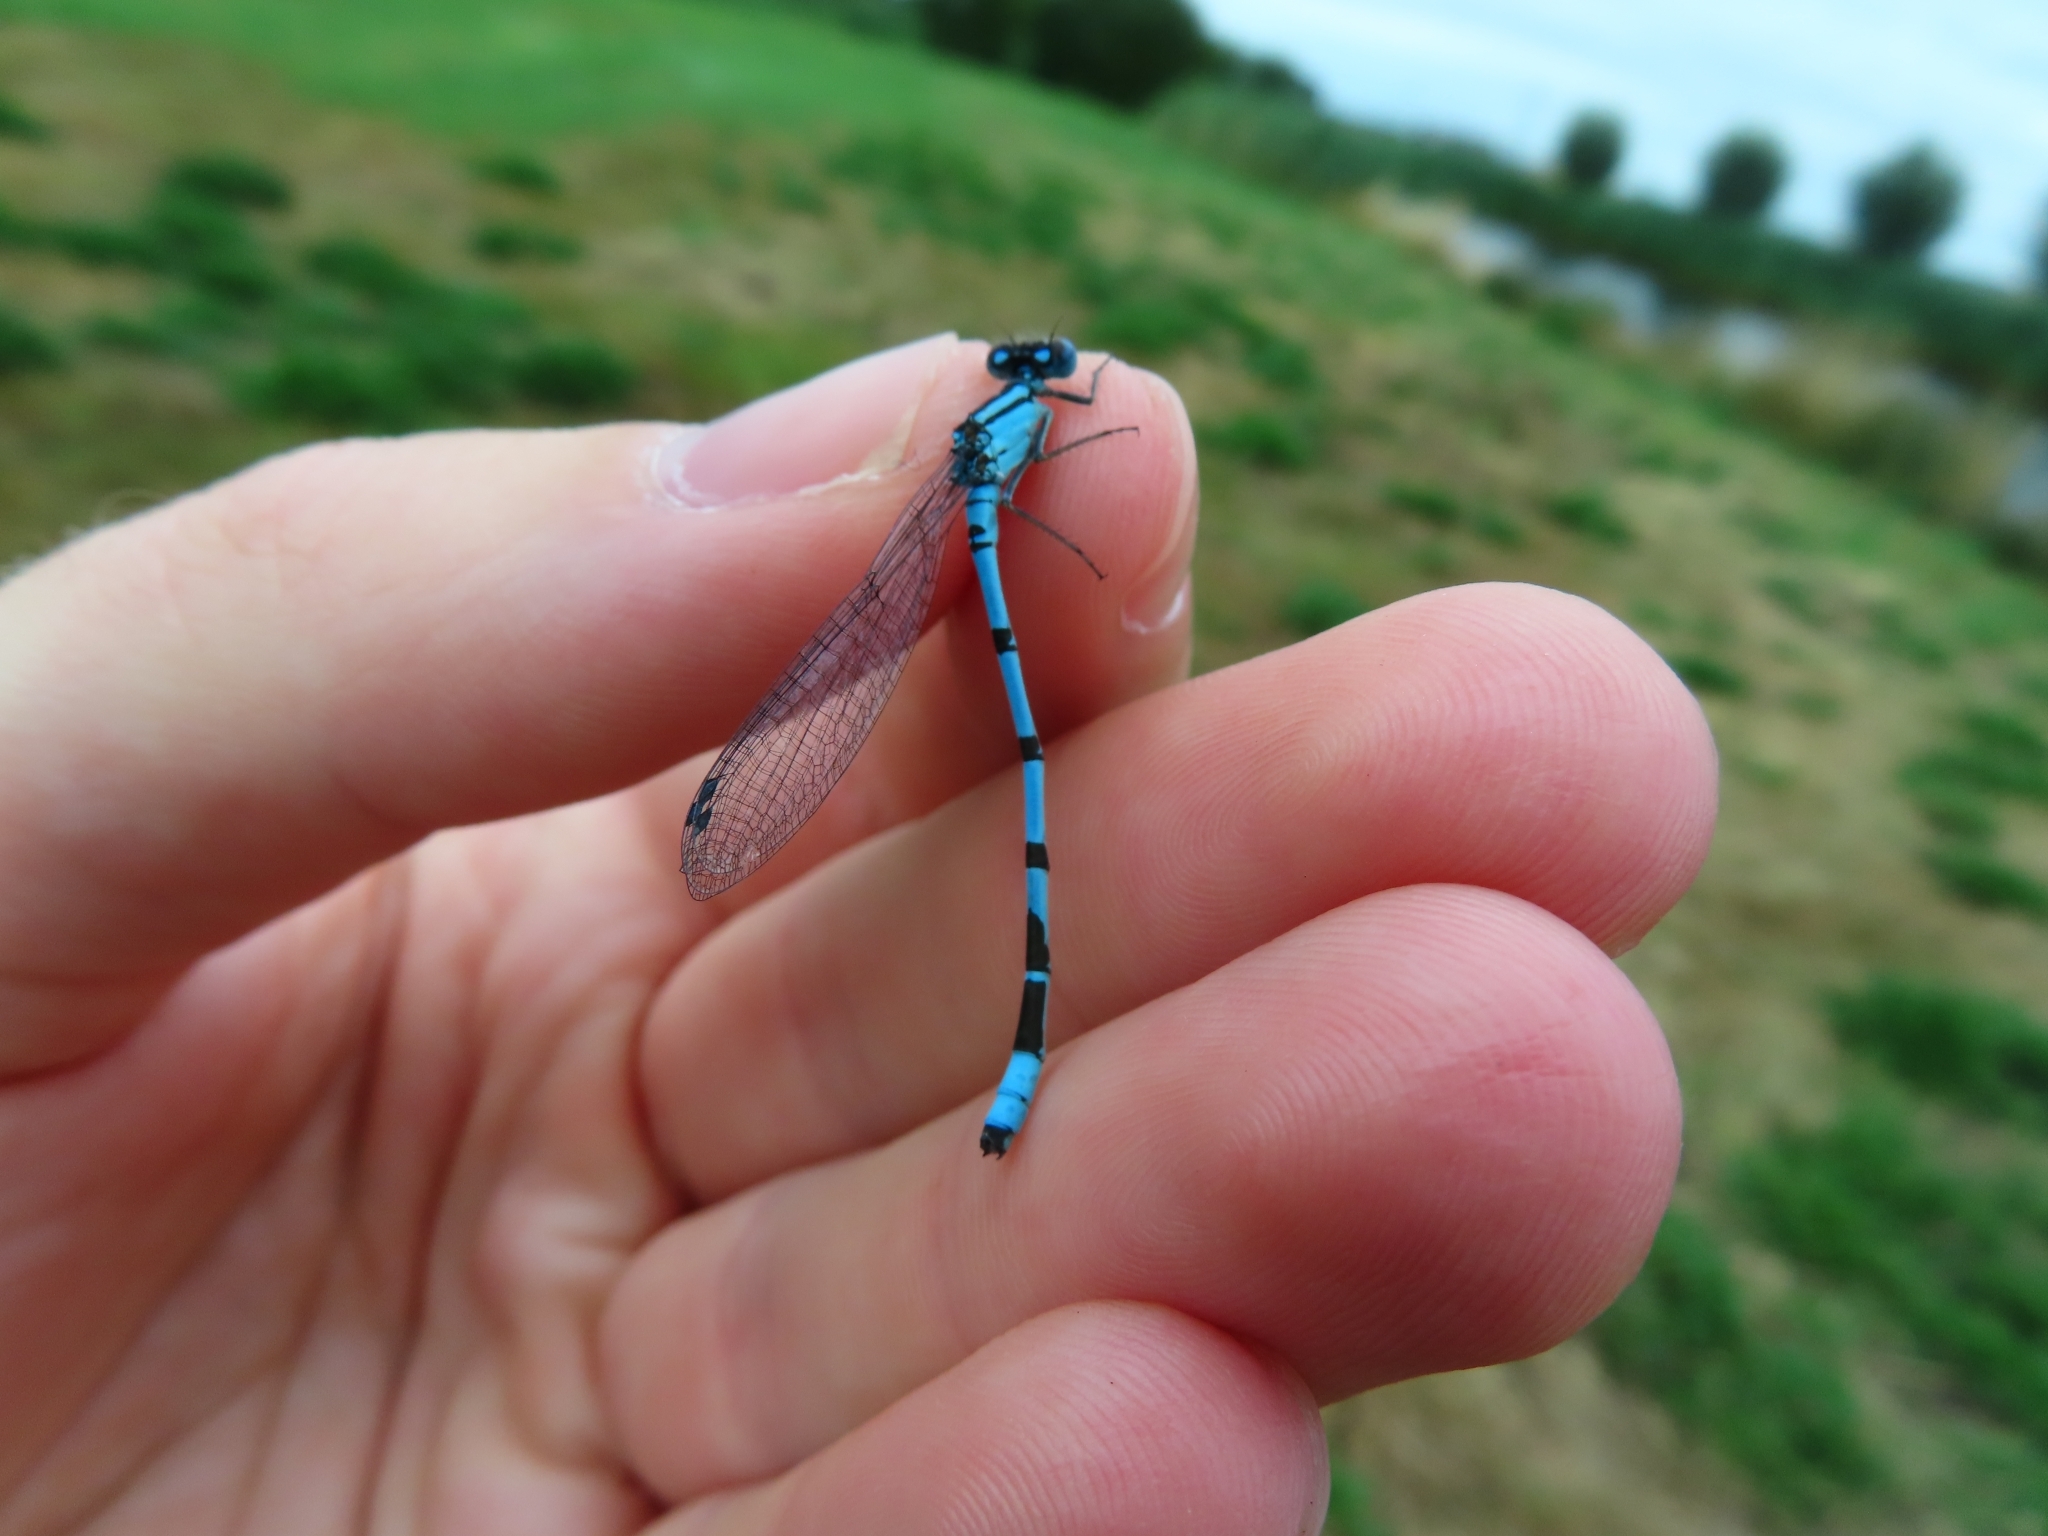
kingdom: Animalia
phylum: Arthropoda
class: Insecta
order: Odonata
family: Coenagrionidae
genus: Enallagma
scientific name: Enallagma cyathigerum
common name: Common blue damselfly
